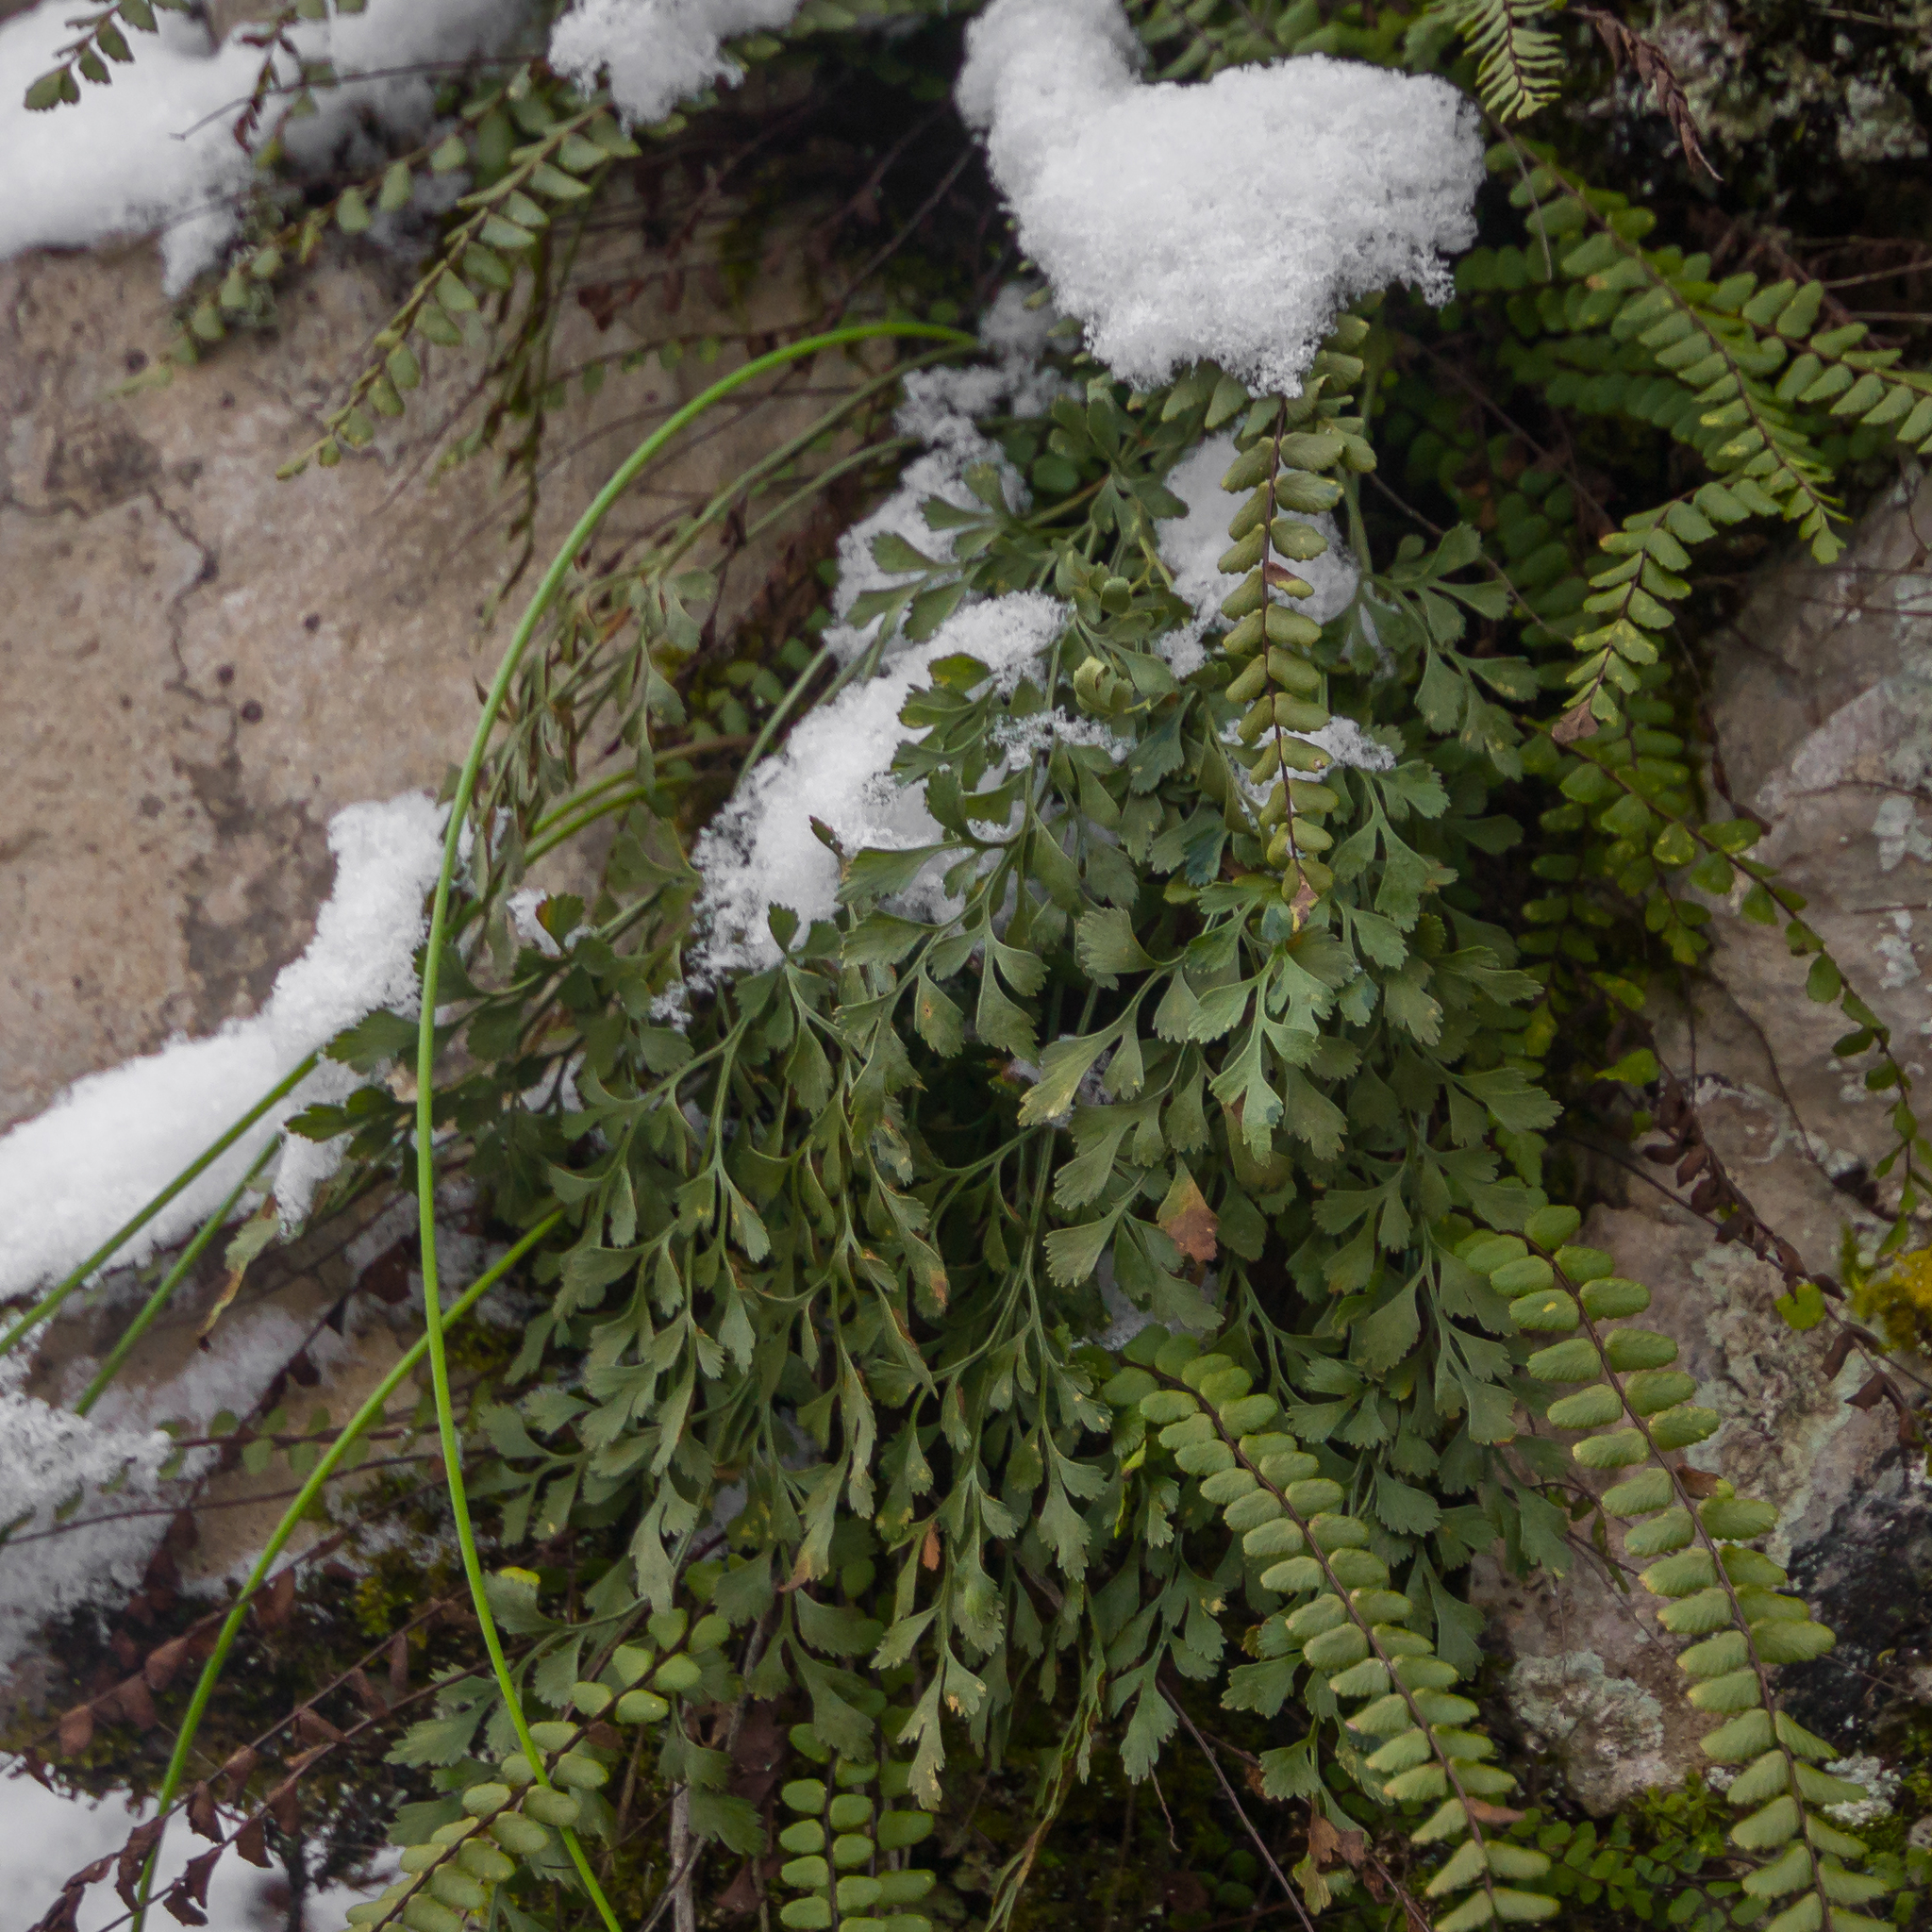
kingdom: Plantae
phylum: Tracheophyta
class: Polypodiopsida
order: Polypodiales
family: Aspleniaceae
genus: Asplenium
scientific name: Asplenium ruta-muraria
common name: Wall-rue
